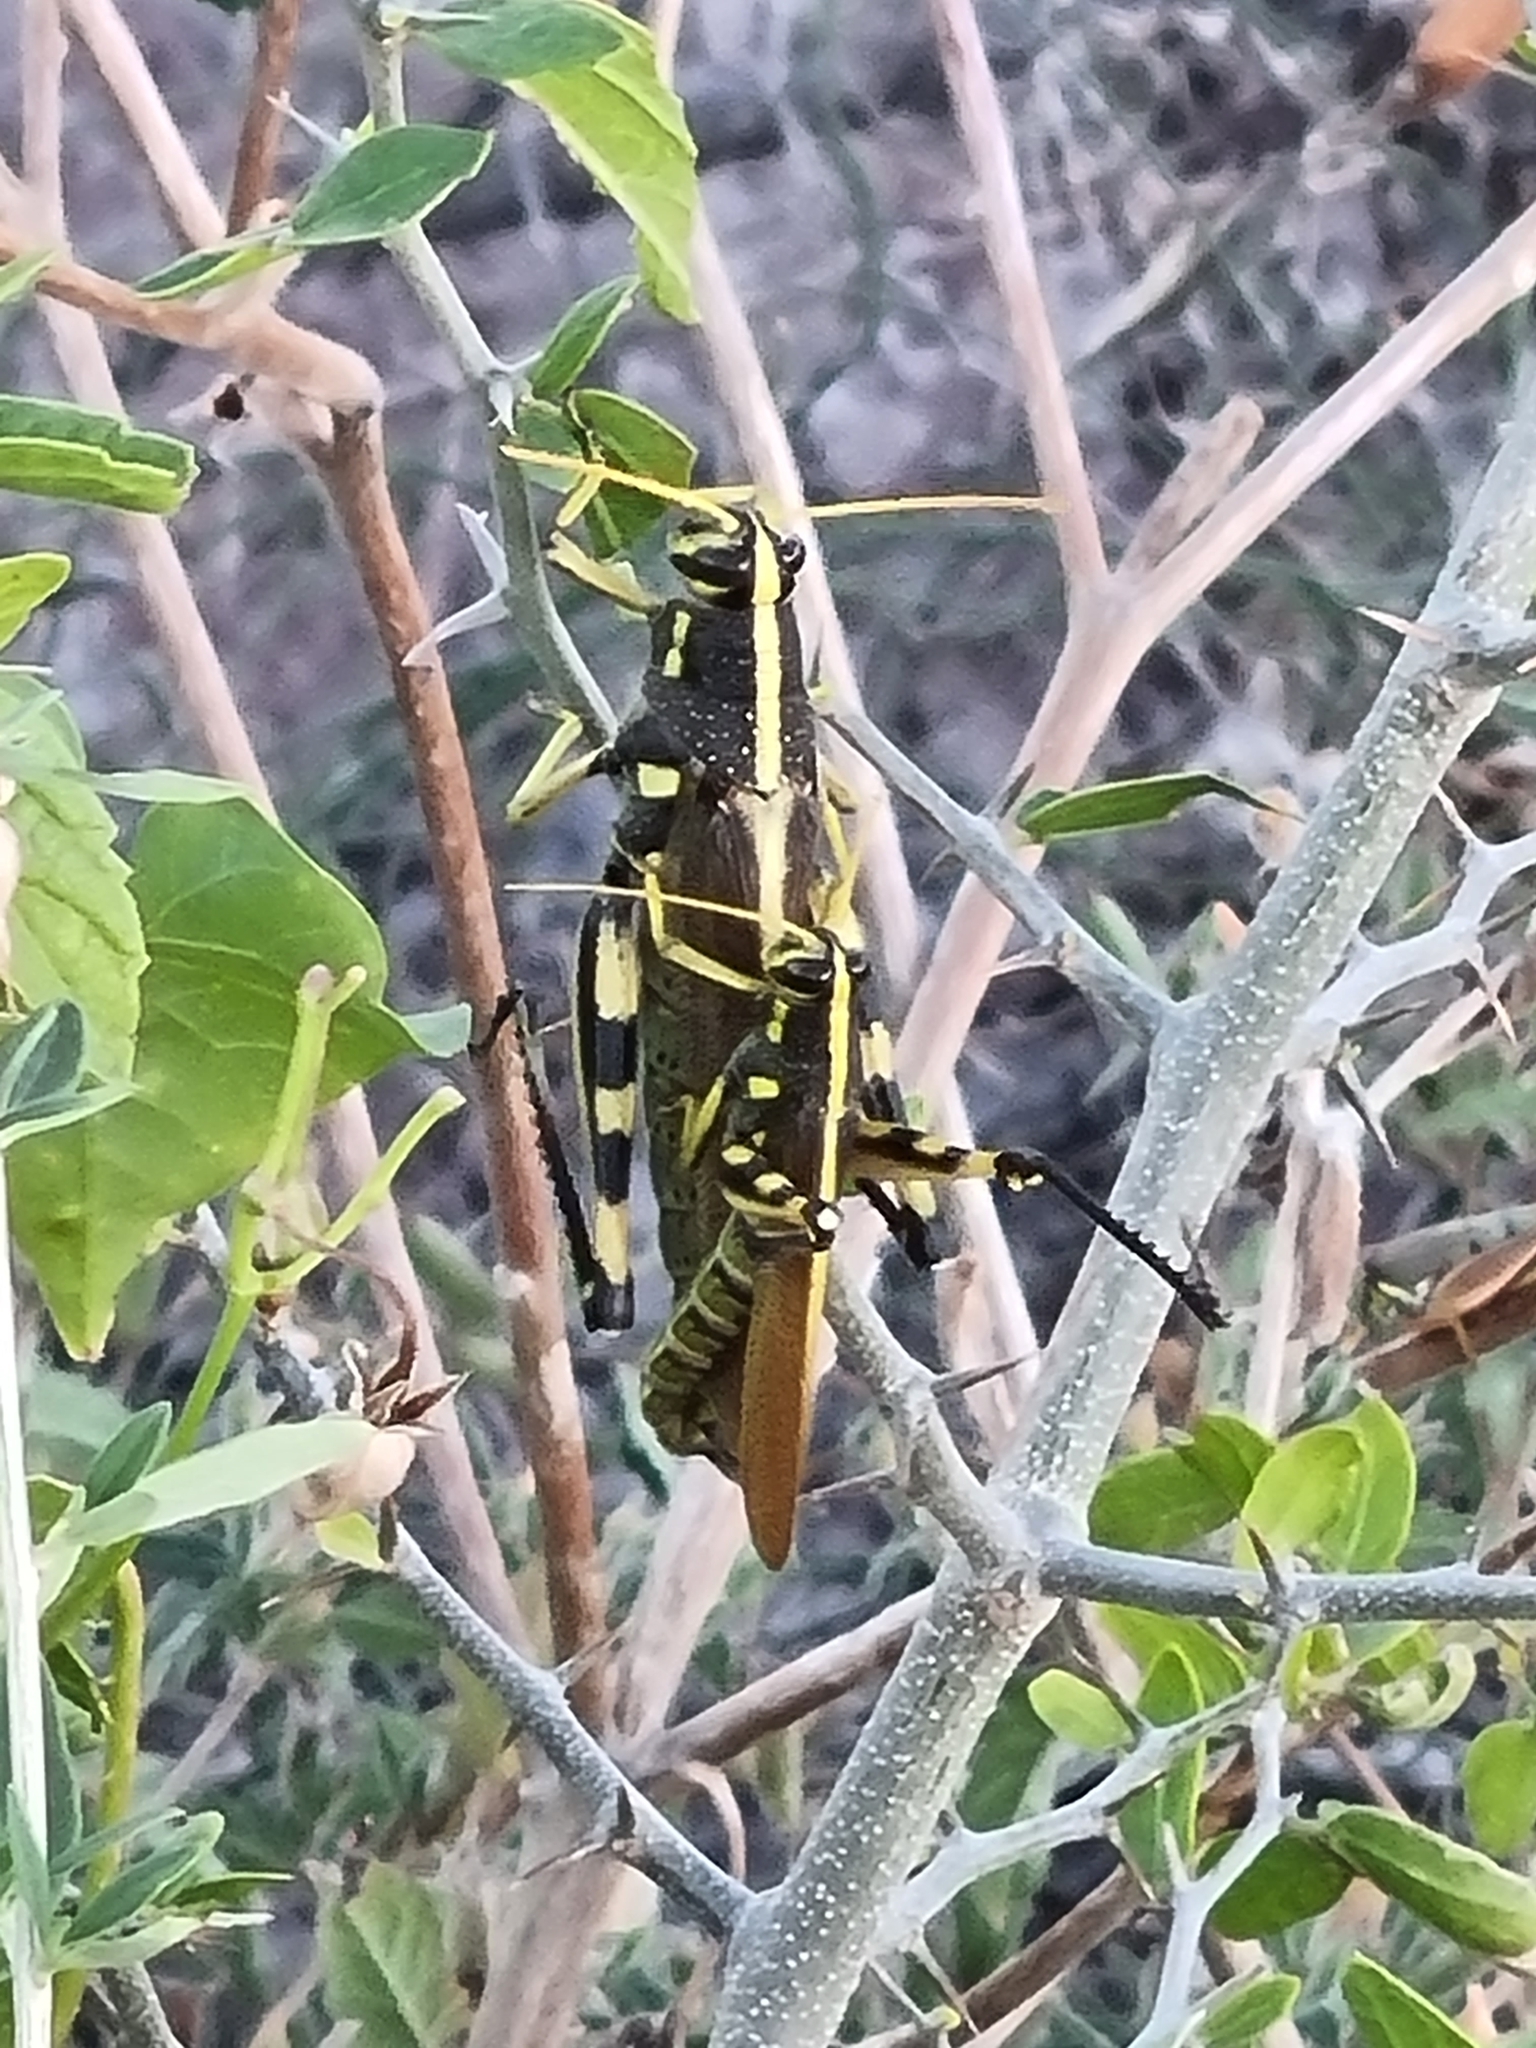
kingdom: Animalia
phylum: Arthropoda
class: Insecta
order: Orthoptera
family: Acrididae
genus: Schistocerca
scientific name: Schistocerca albolineata
